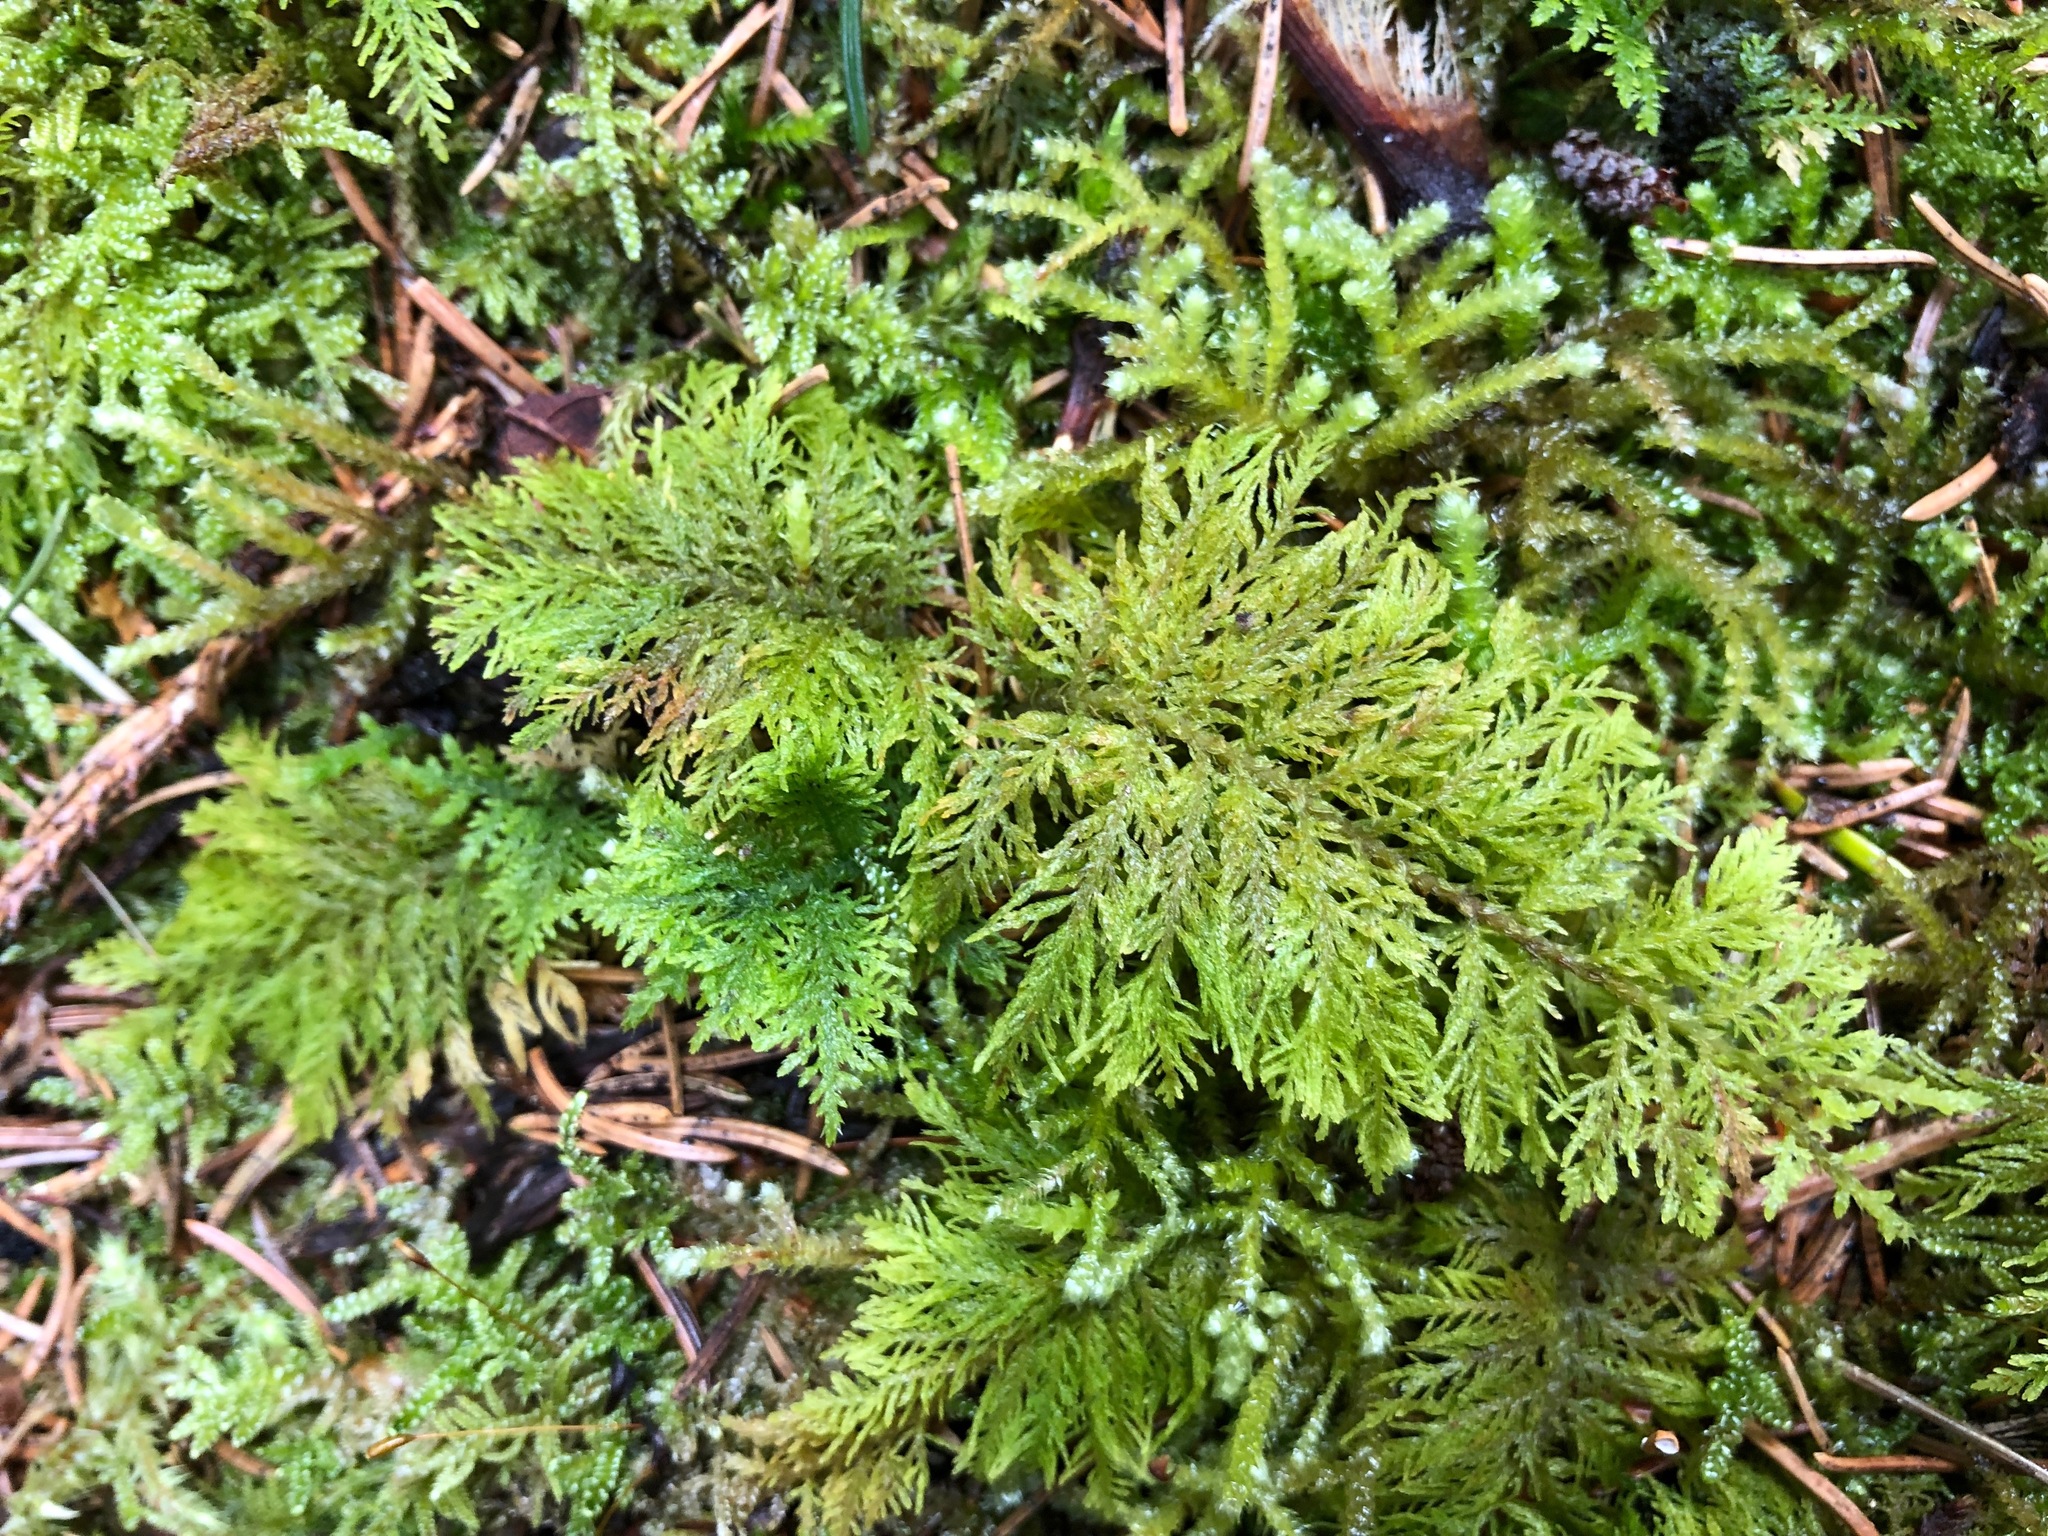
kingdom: Plantae
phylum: Bryophyta
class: Bryopsida
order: Hypnales
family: Thuidiaceae
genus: Thuidium
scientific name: Thuidium tamariscinum
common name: Common tamarisk-moss
